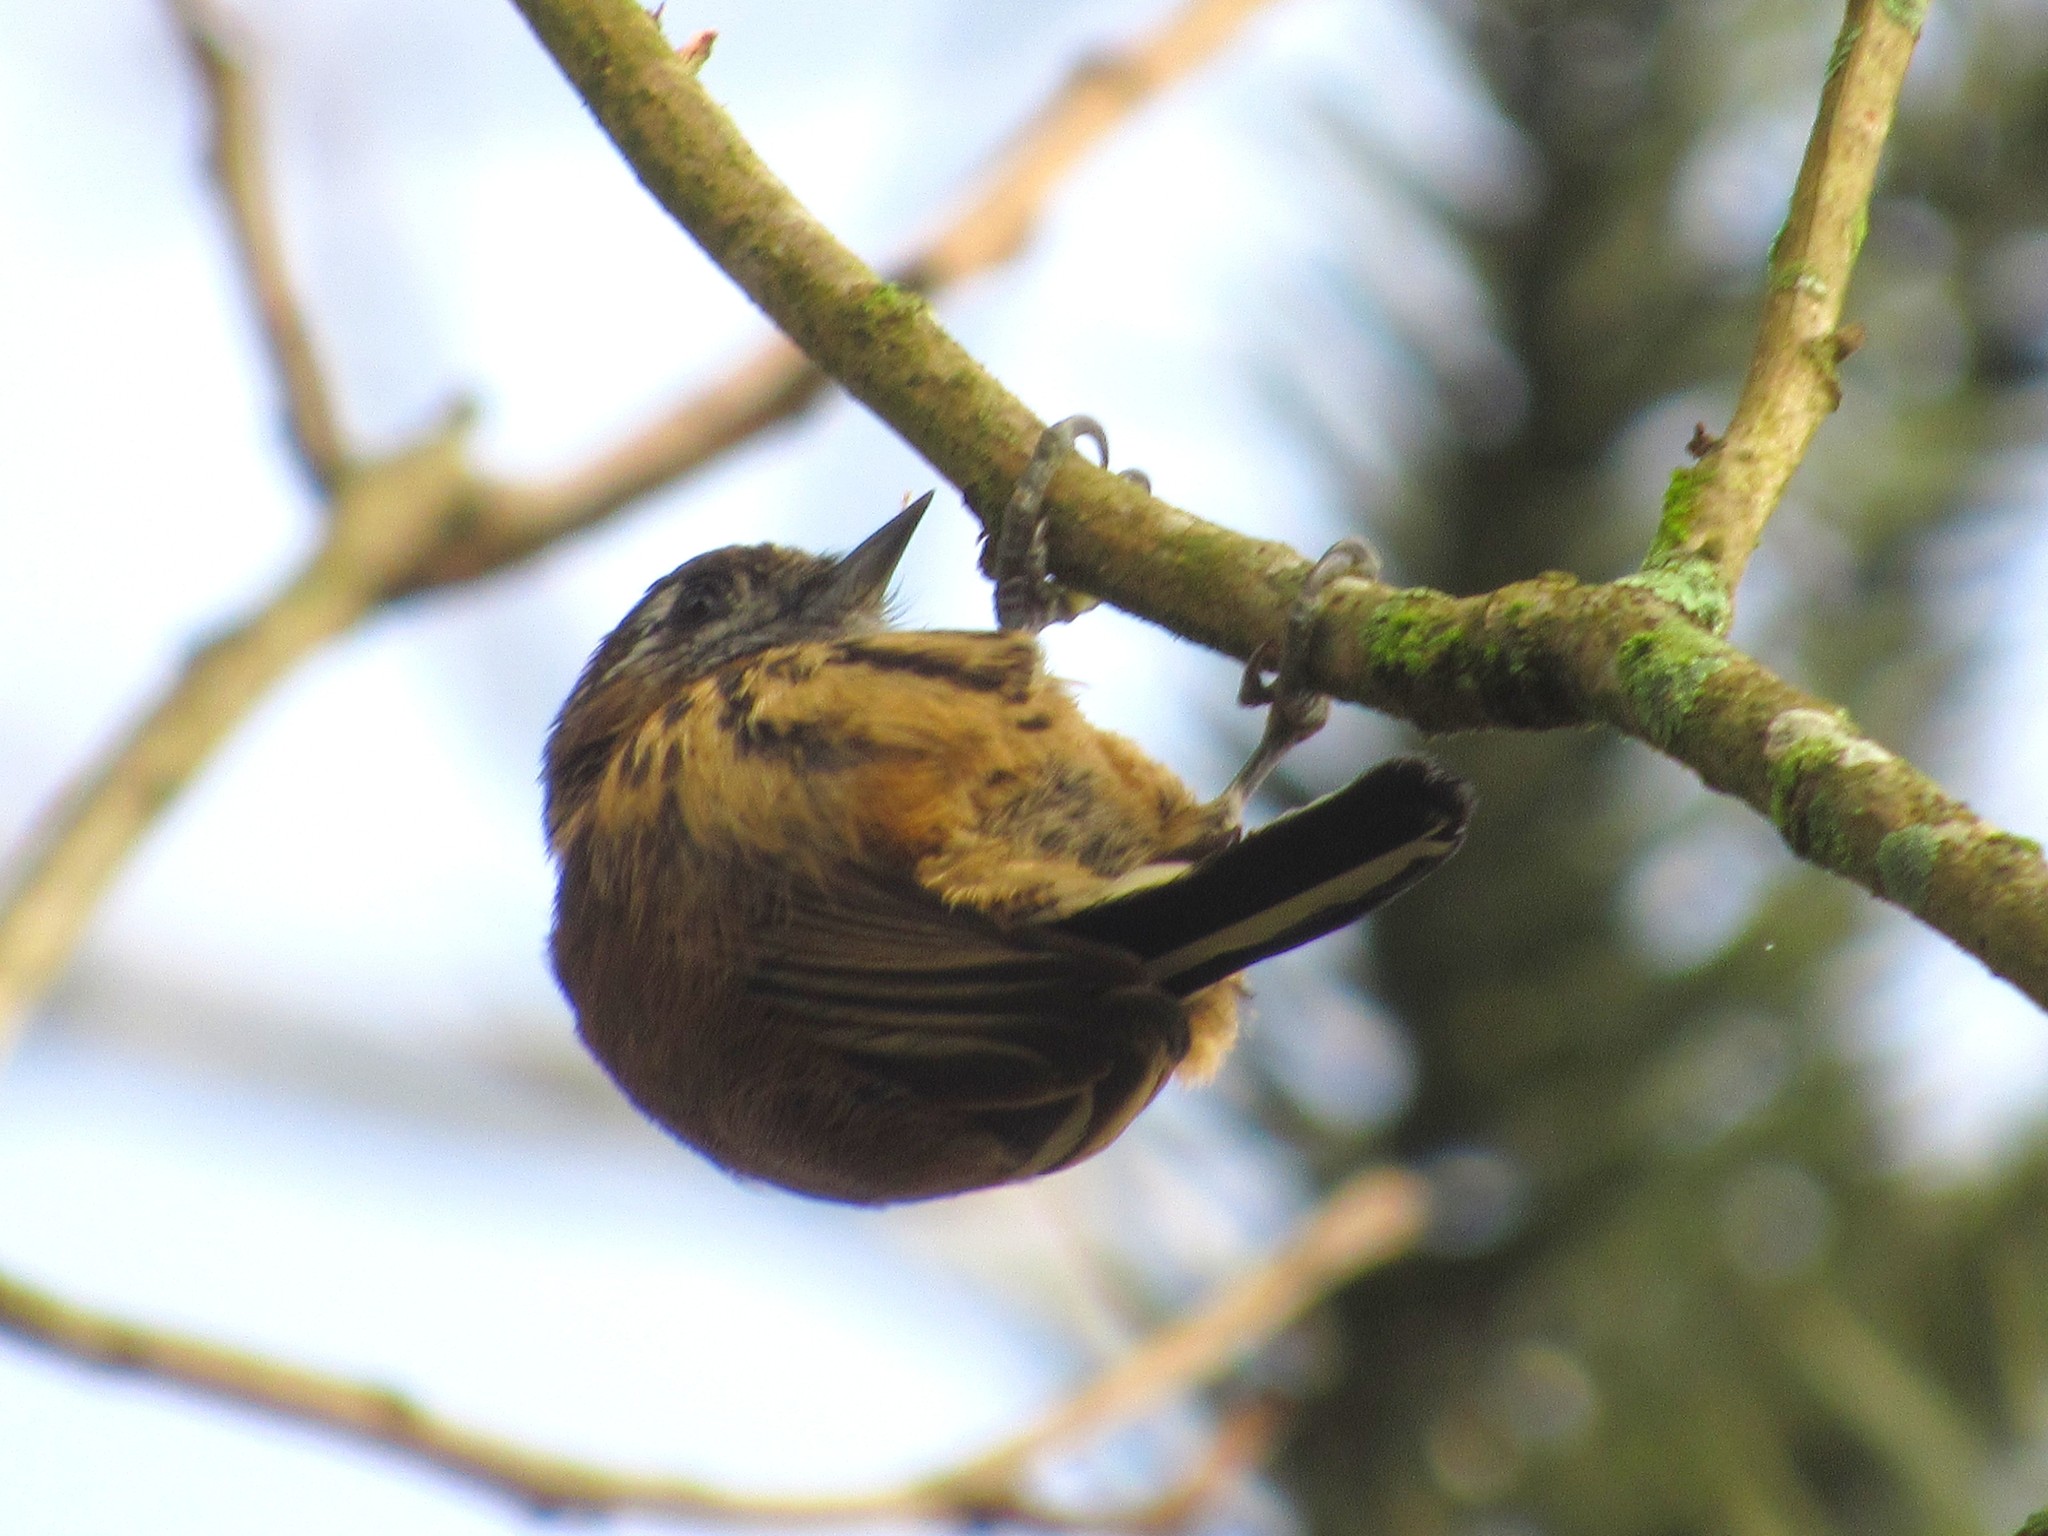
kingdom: Animalia
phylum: Chordata
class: Aves
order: Piciformes
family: Picidae
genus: Picumnus
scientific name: Picumnus nebulosus
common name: Mottled piculet
